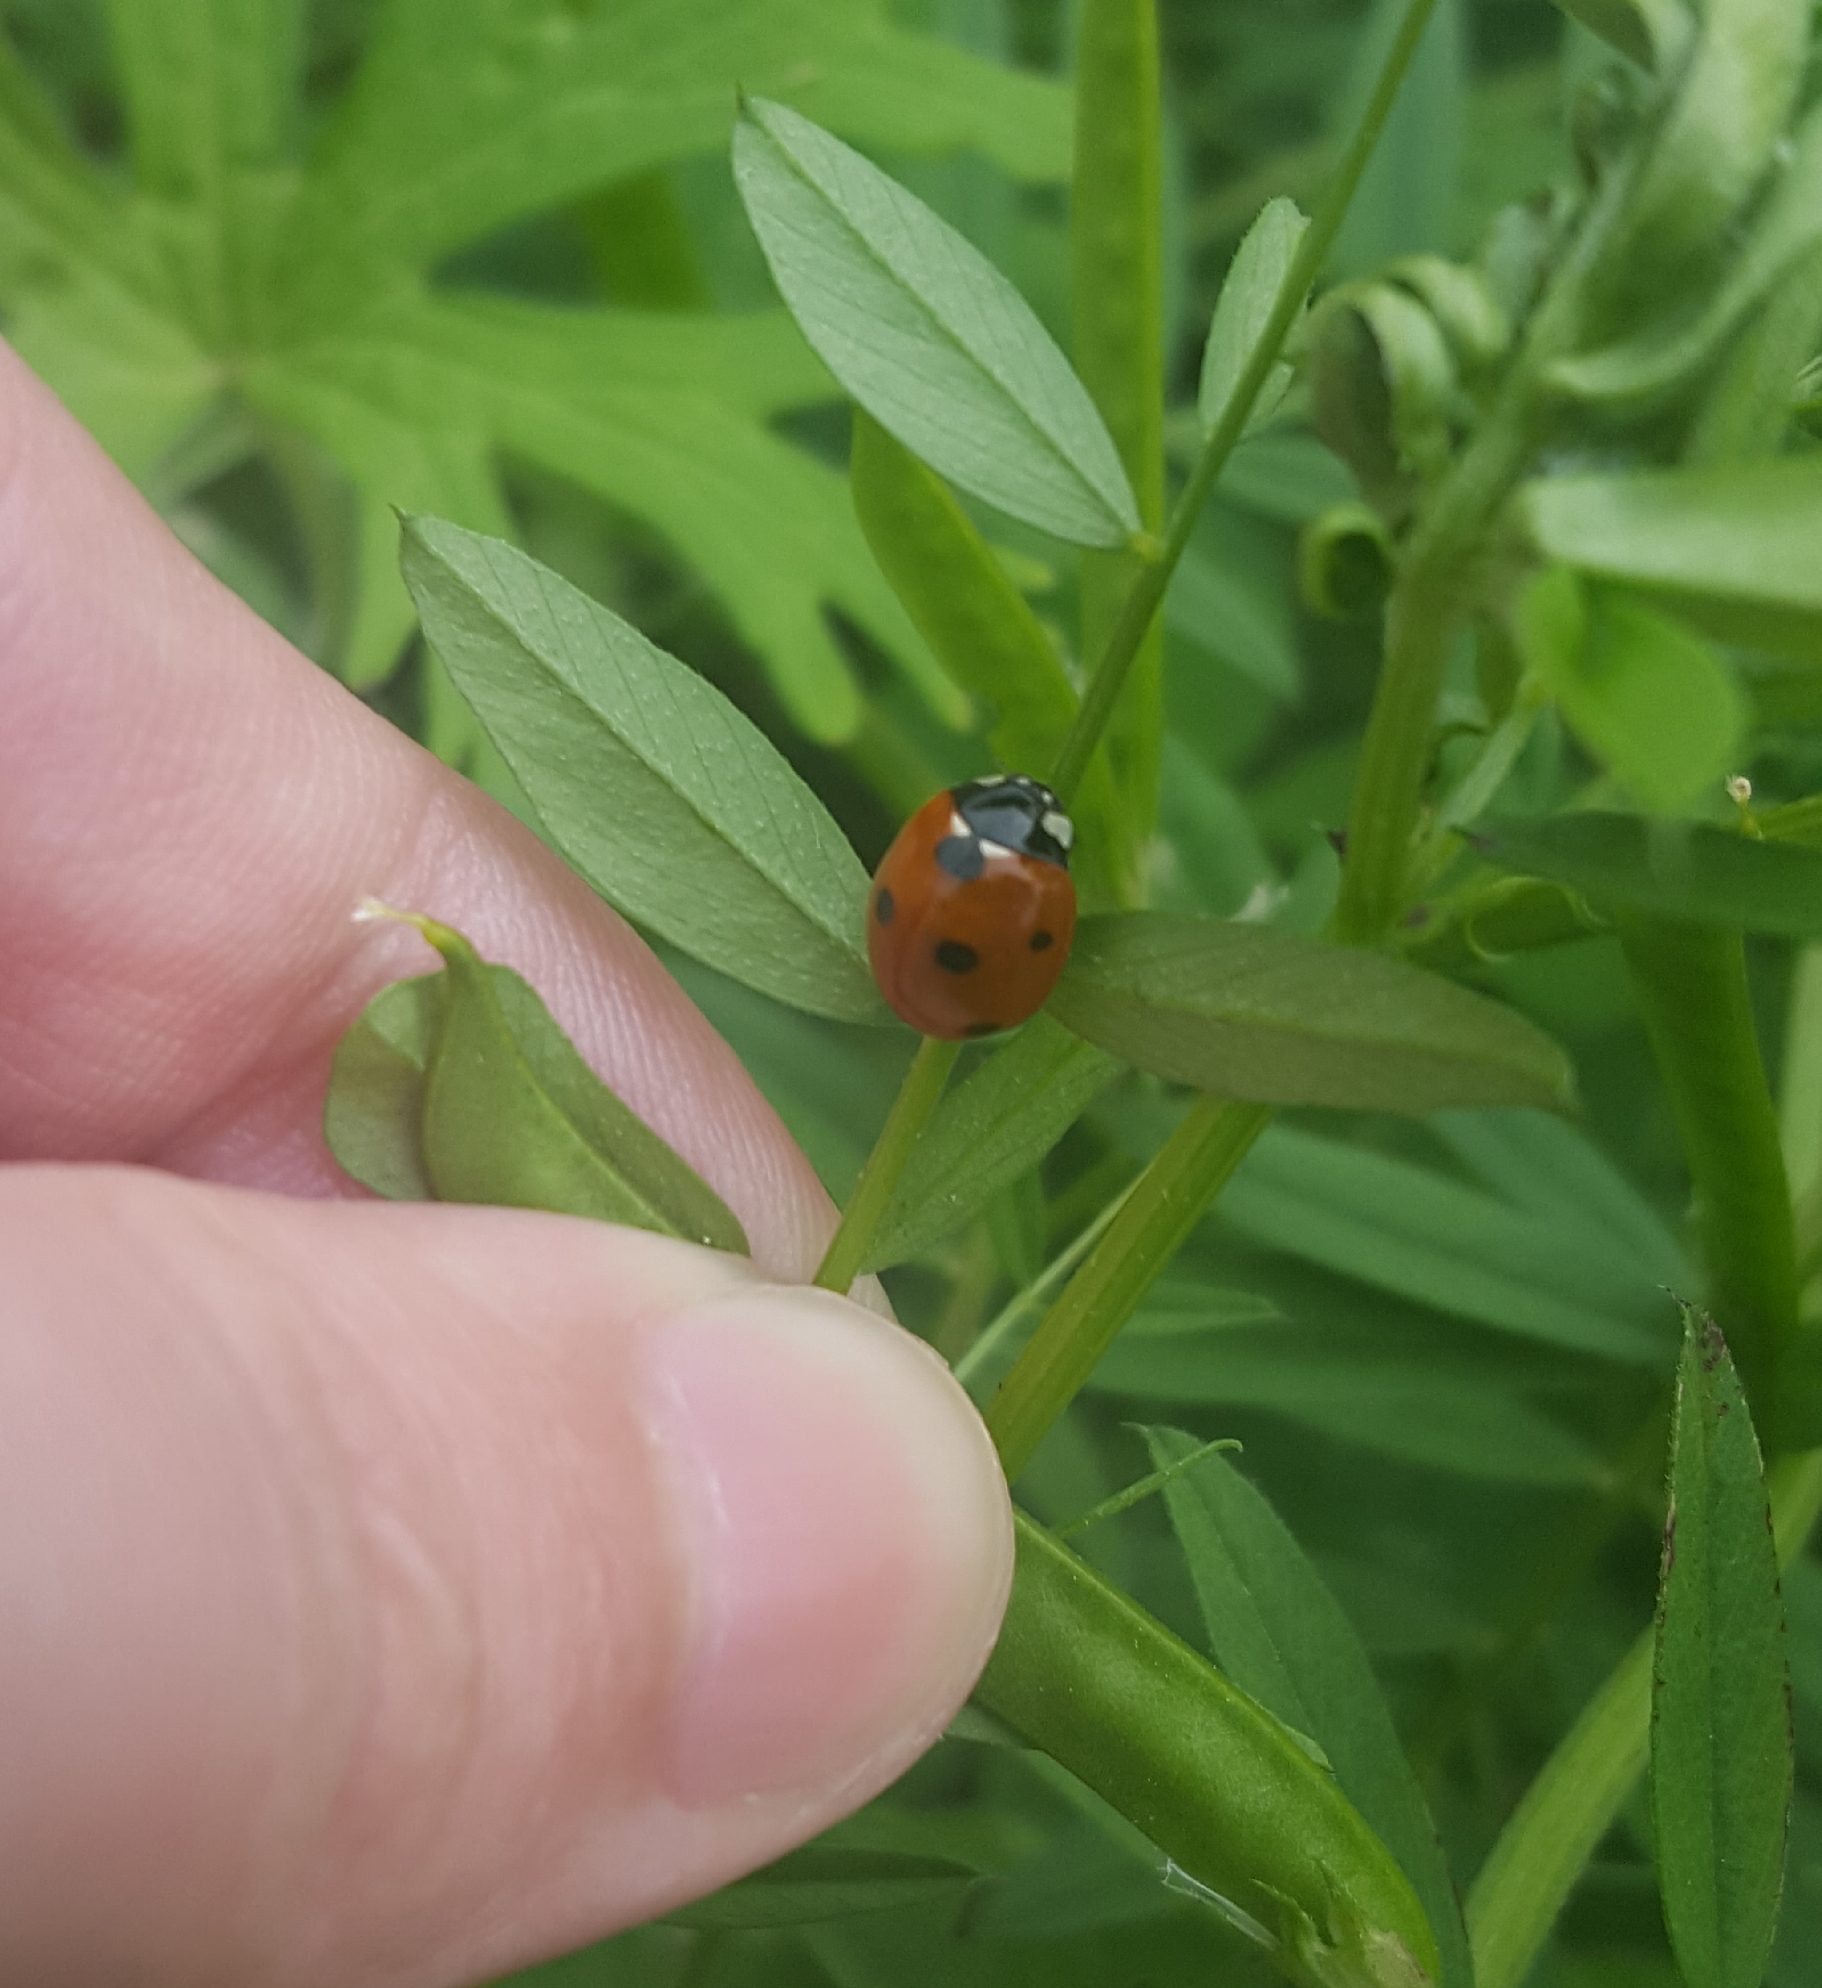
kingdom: Animalia
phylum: Arthropoda
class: Insecta
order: Coleoptera
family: Coccinellidae
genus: Coccinella
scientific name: Coccinella septempunctata
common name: Sevenspotted lady beetle
